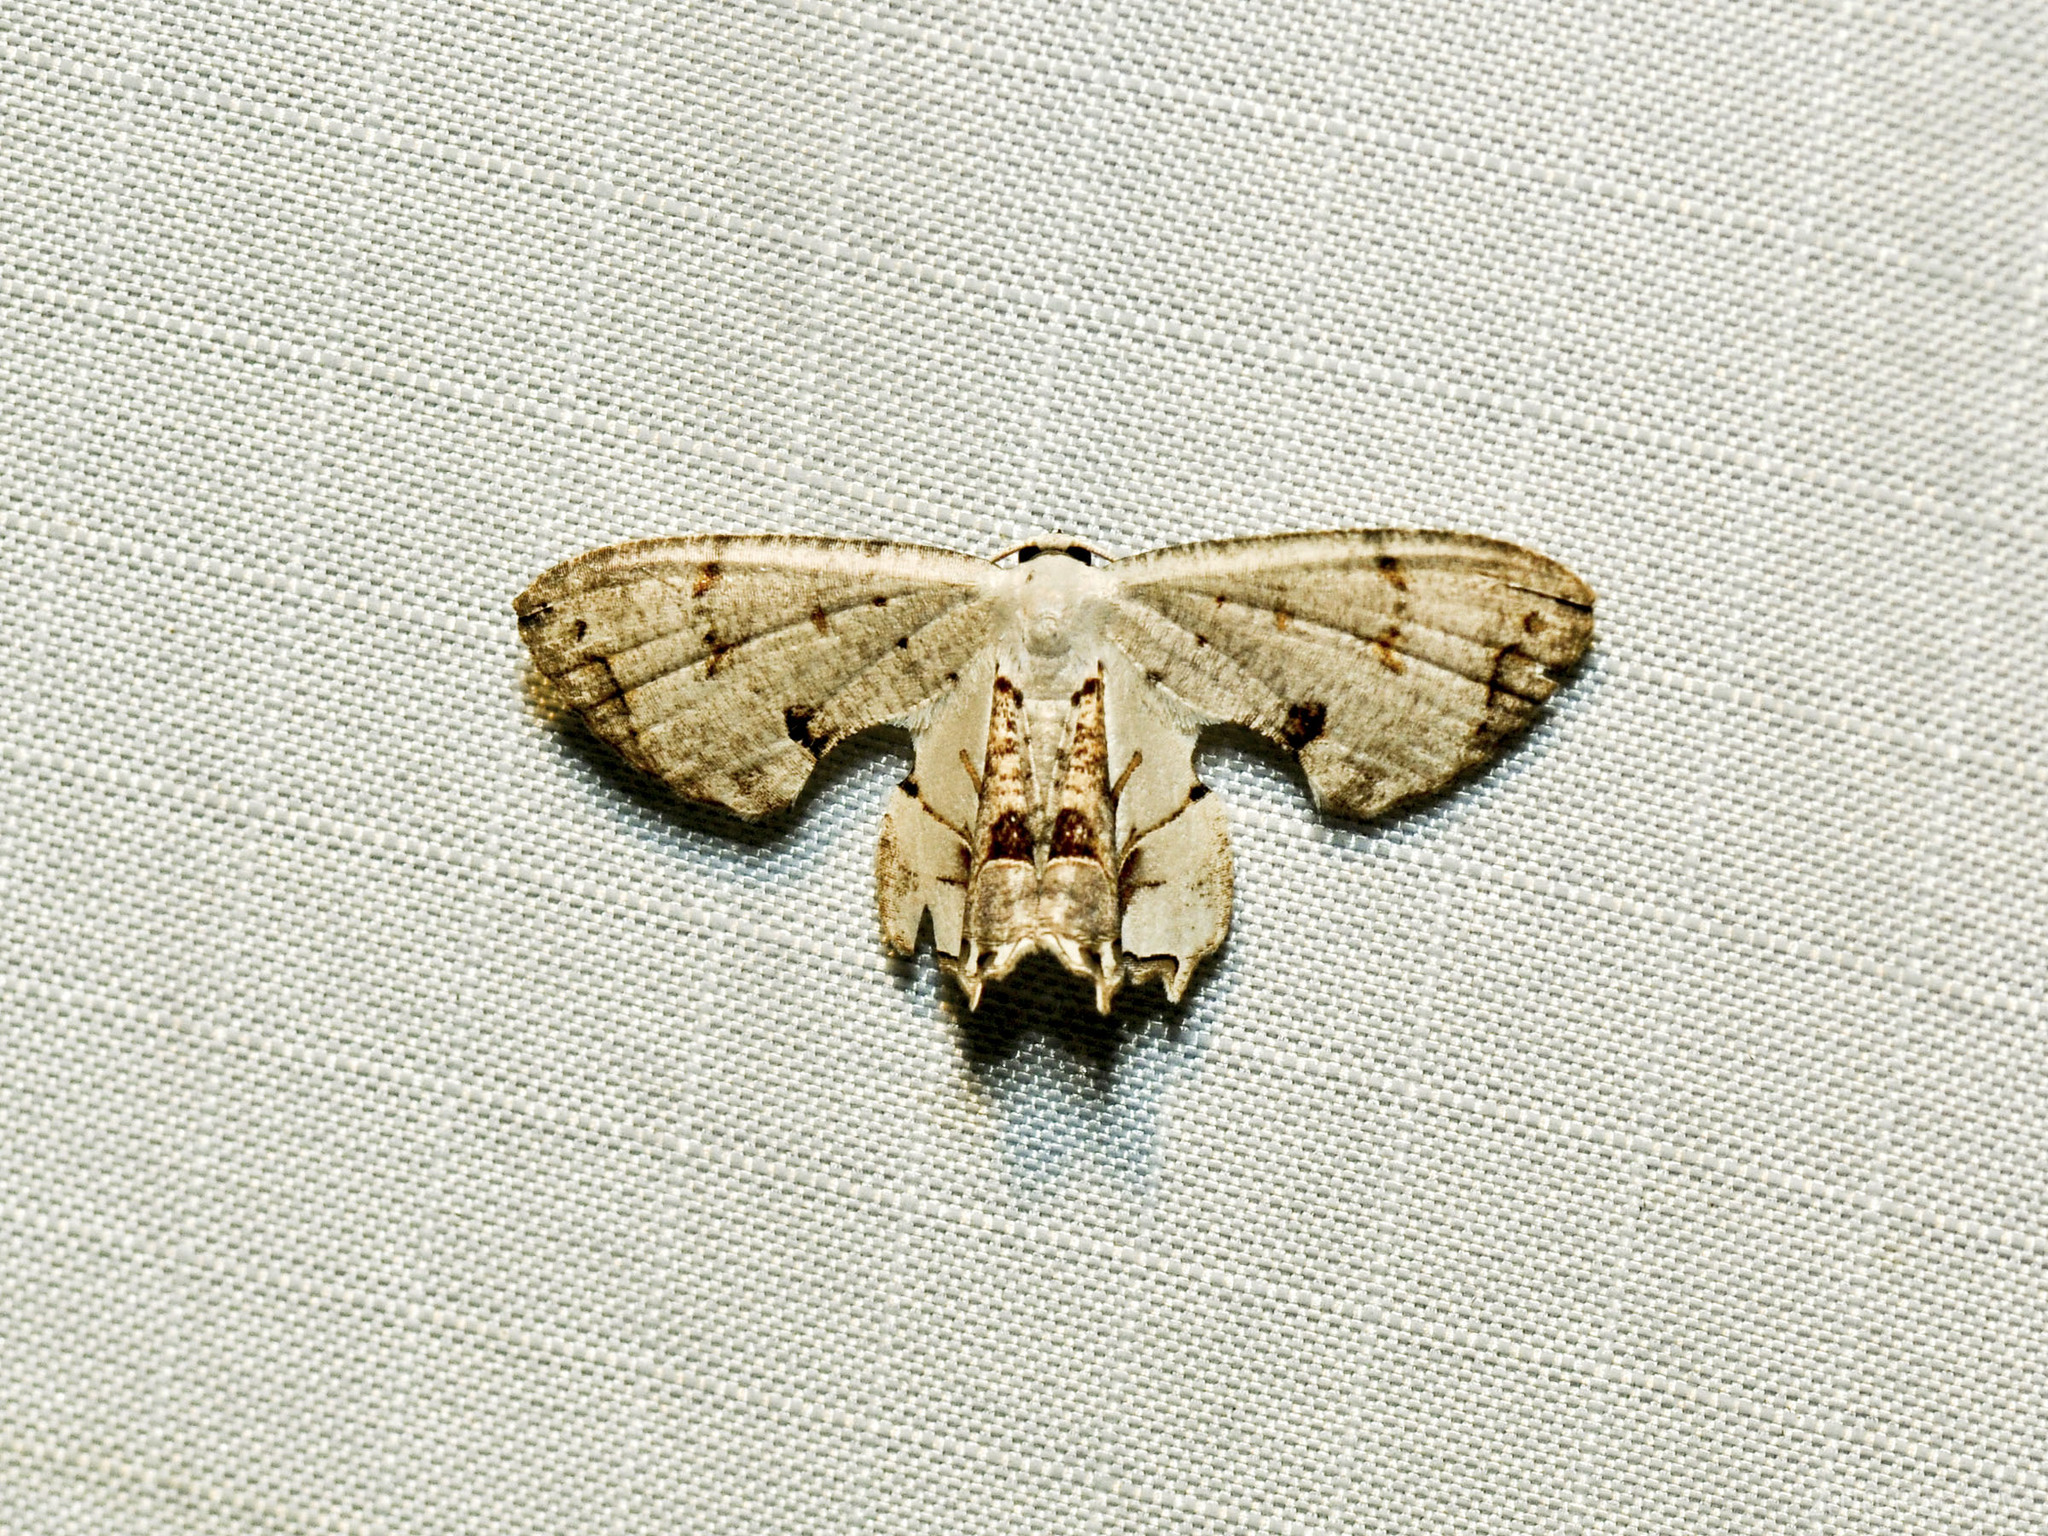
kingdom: Animalia
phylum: Arthropoda
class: Insecta
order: Lepidoptera
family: Uraniidae
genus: Dysaethria
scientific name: Dysaethria lilacina
